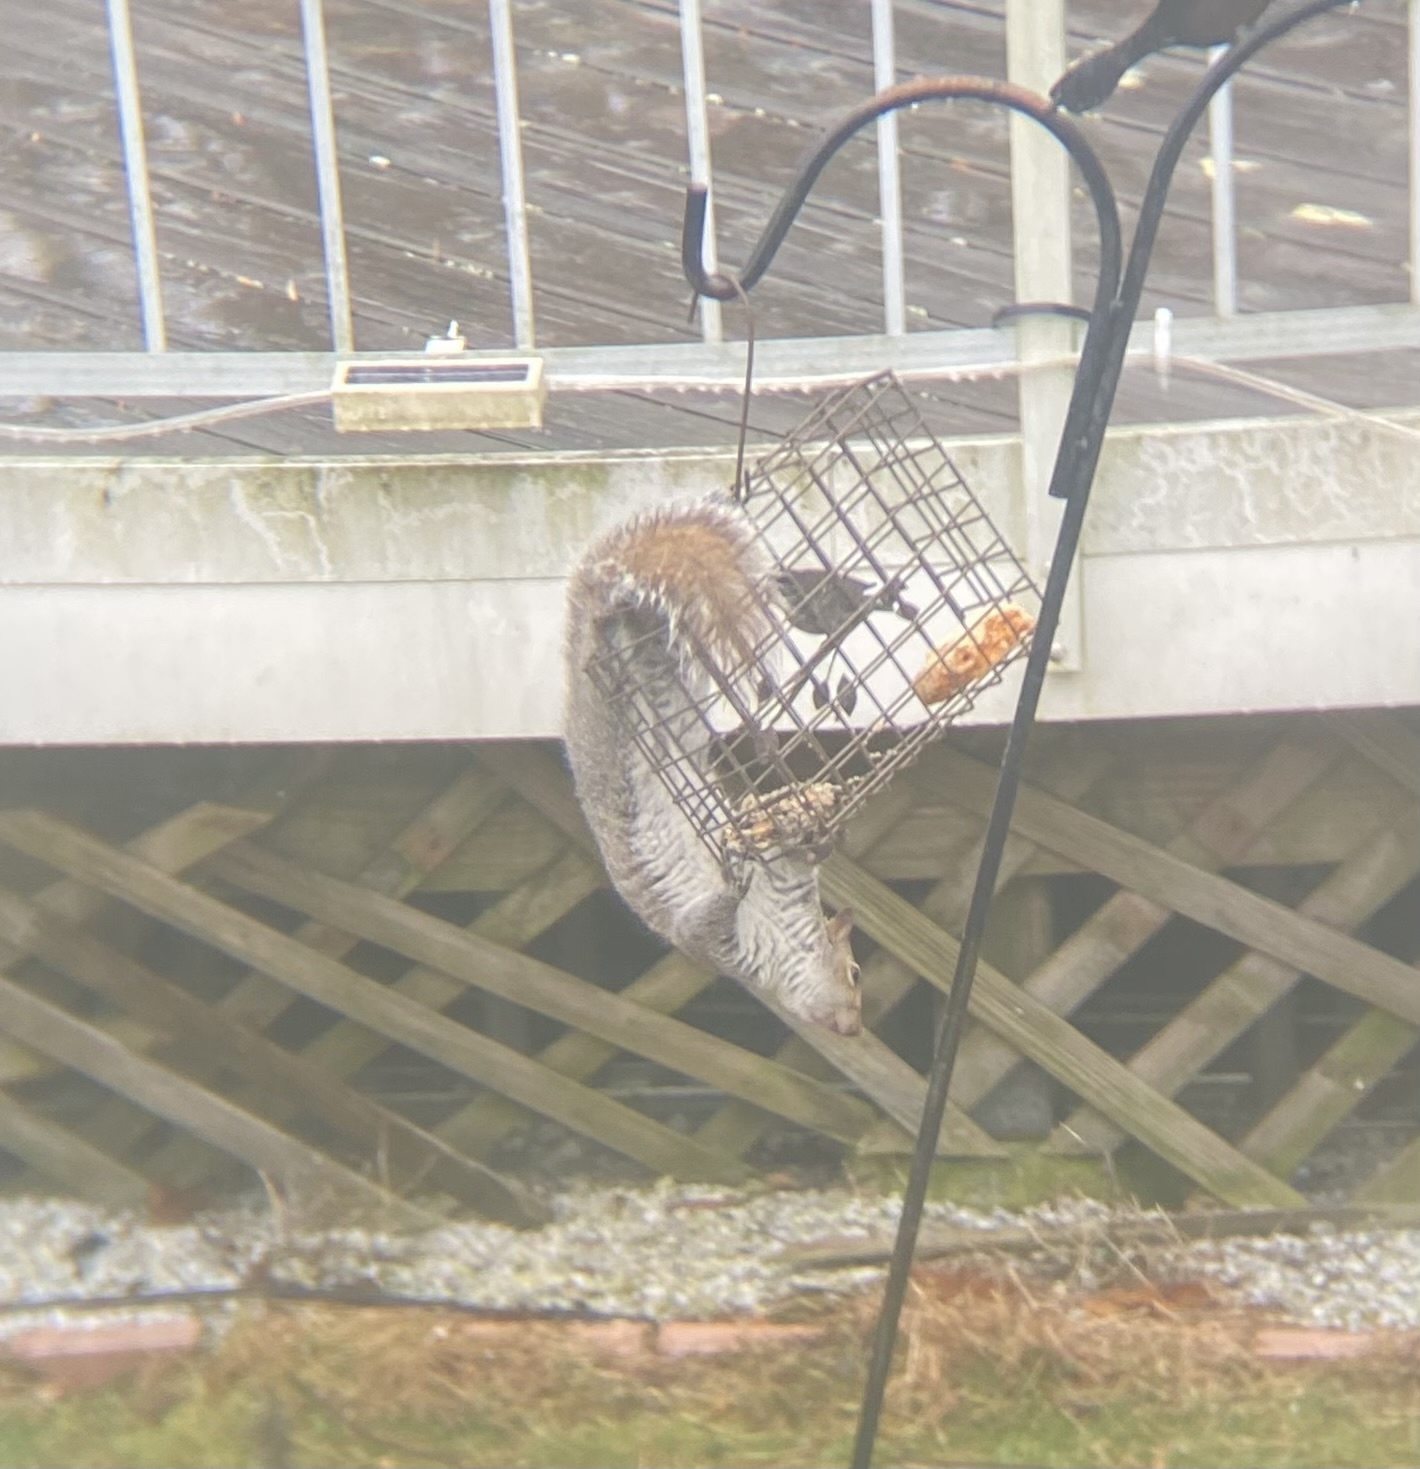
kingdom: Animalia
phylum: Chordata
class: Mammalia
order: Rodentia
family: Sciuridae
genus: Sciurus
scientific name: Sciurus carolinensis
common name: Eastern gray squirrel
